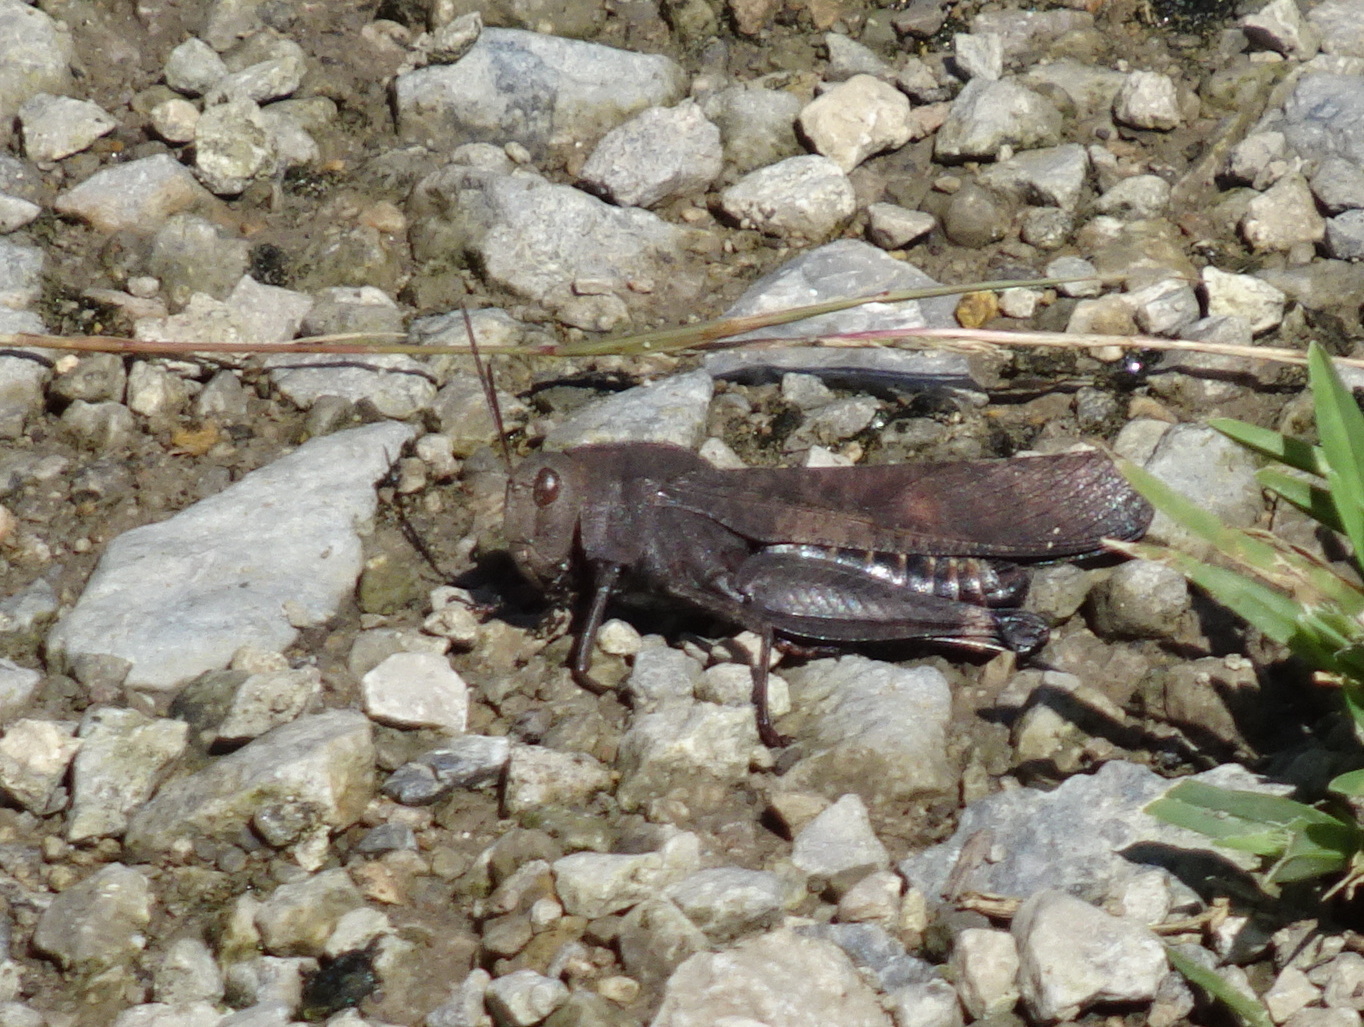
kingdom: Animalia
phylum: Arthropoda
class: Insecta
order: Orthoptera
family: Acrididae
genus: Arphia
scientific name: Arphia xanthoptera
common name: Autumn yellow-winged grasshopper
